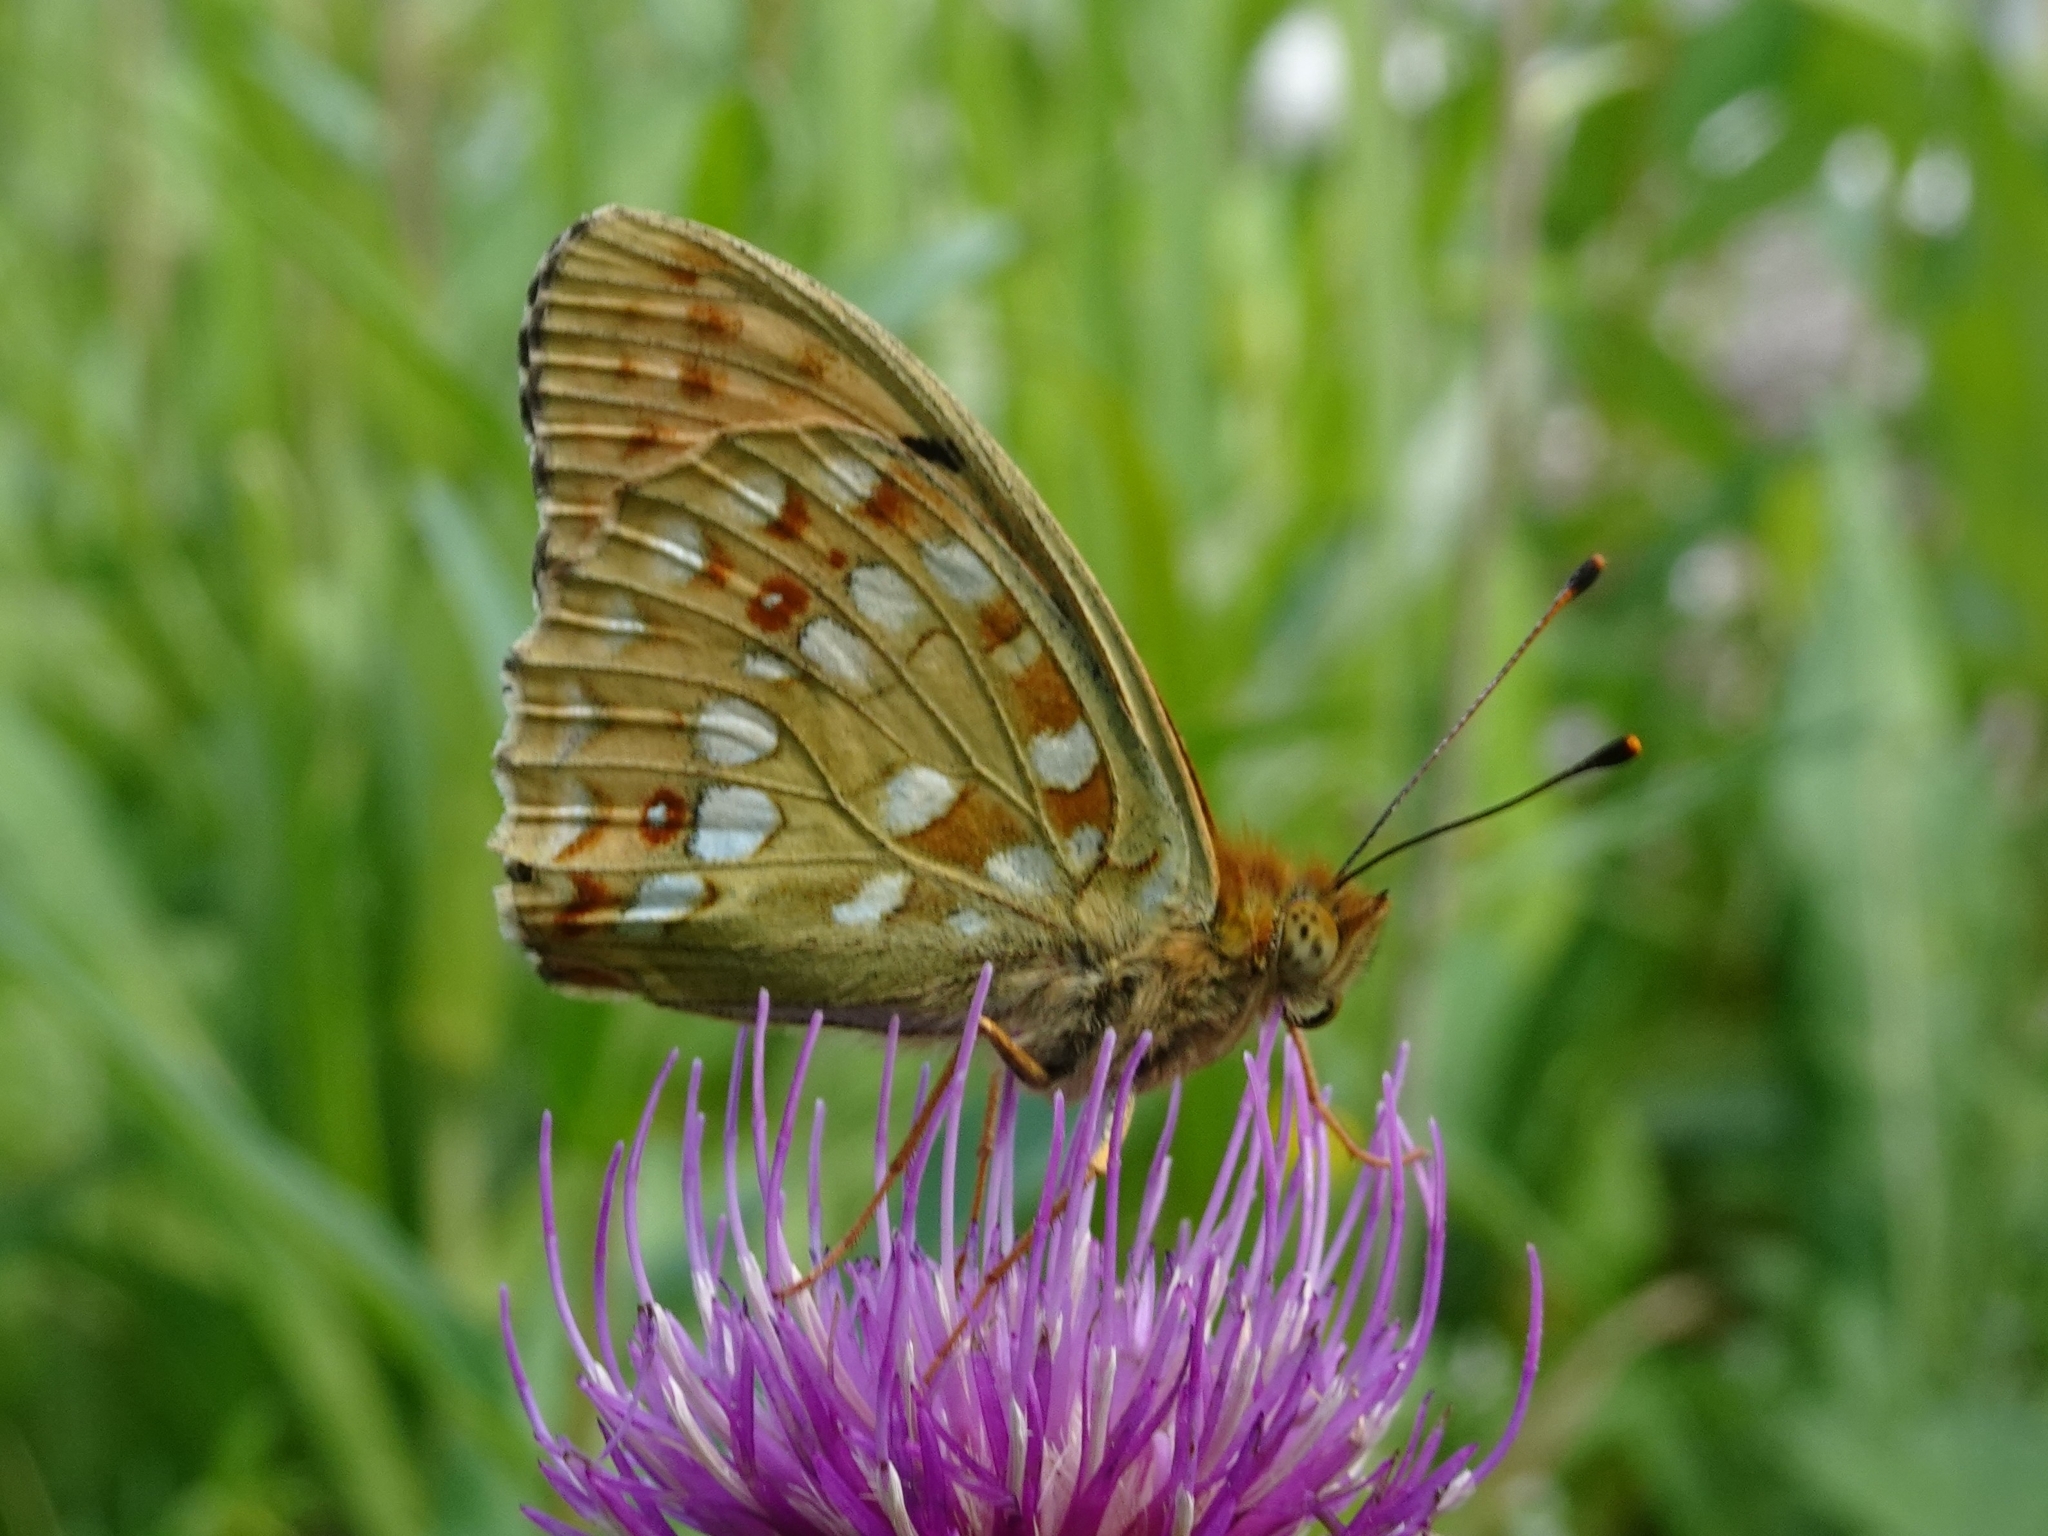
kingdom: Animalia
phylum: Arthropoda
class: Insecta
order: Lepidoptera
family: Nymphalidae
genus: Fabriciana
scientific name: Fabriciana adippe
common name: High brown fritillary
